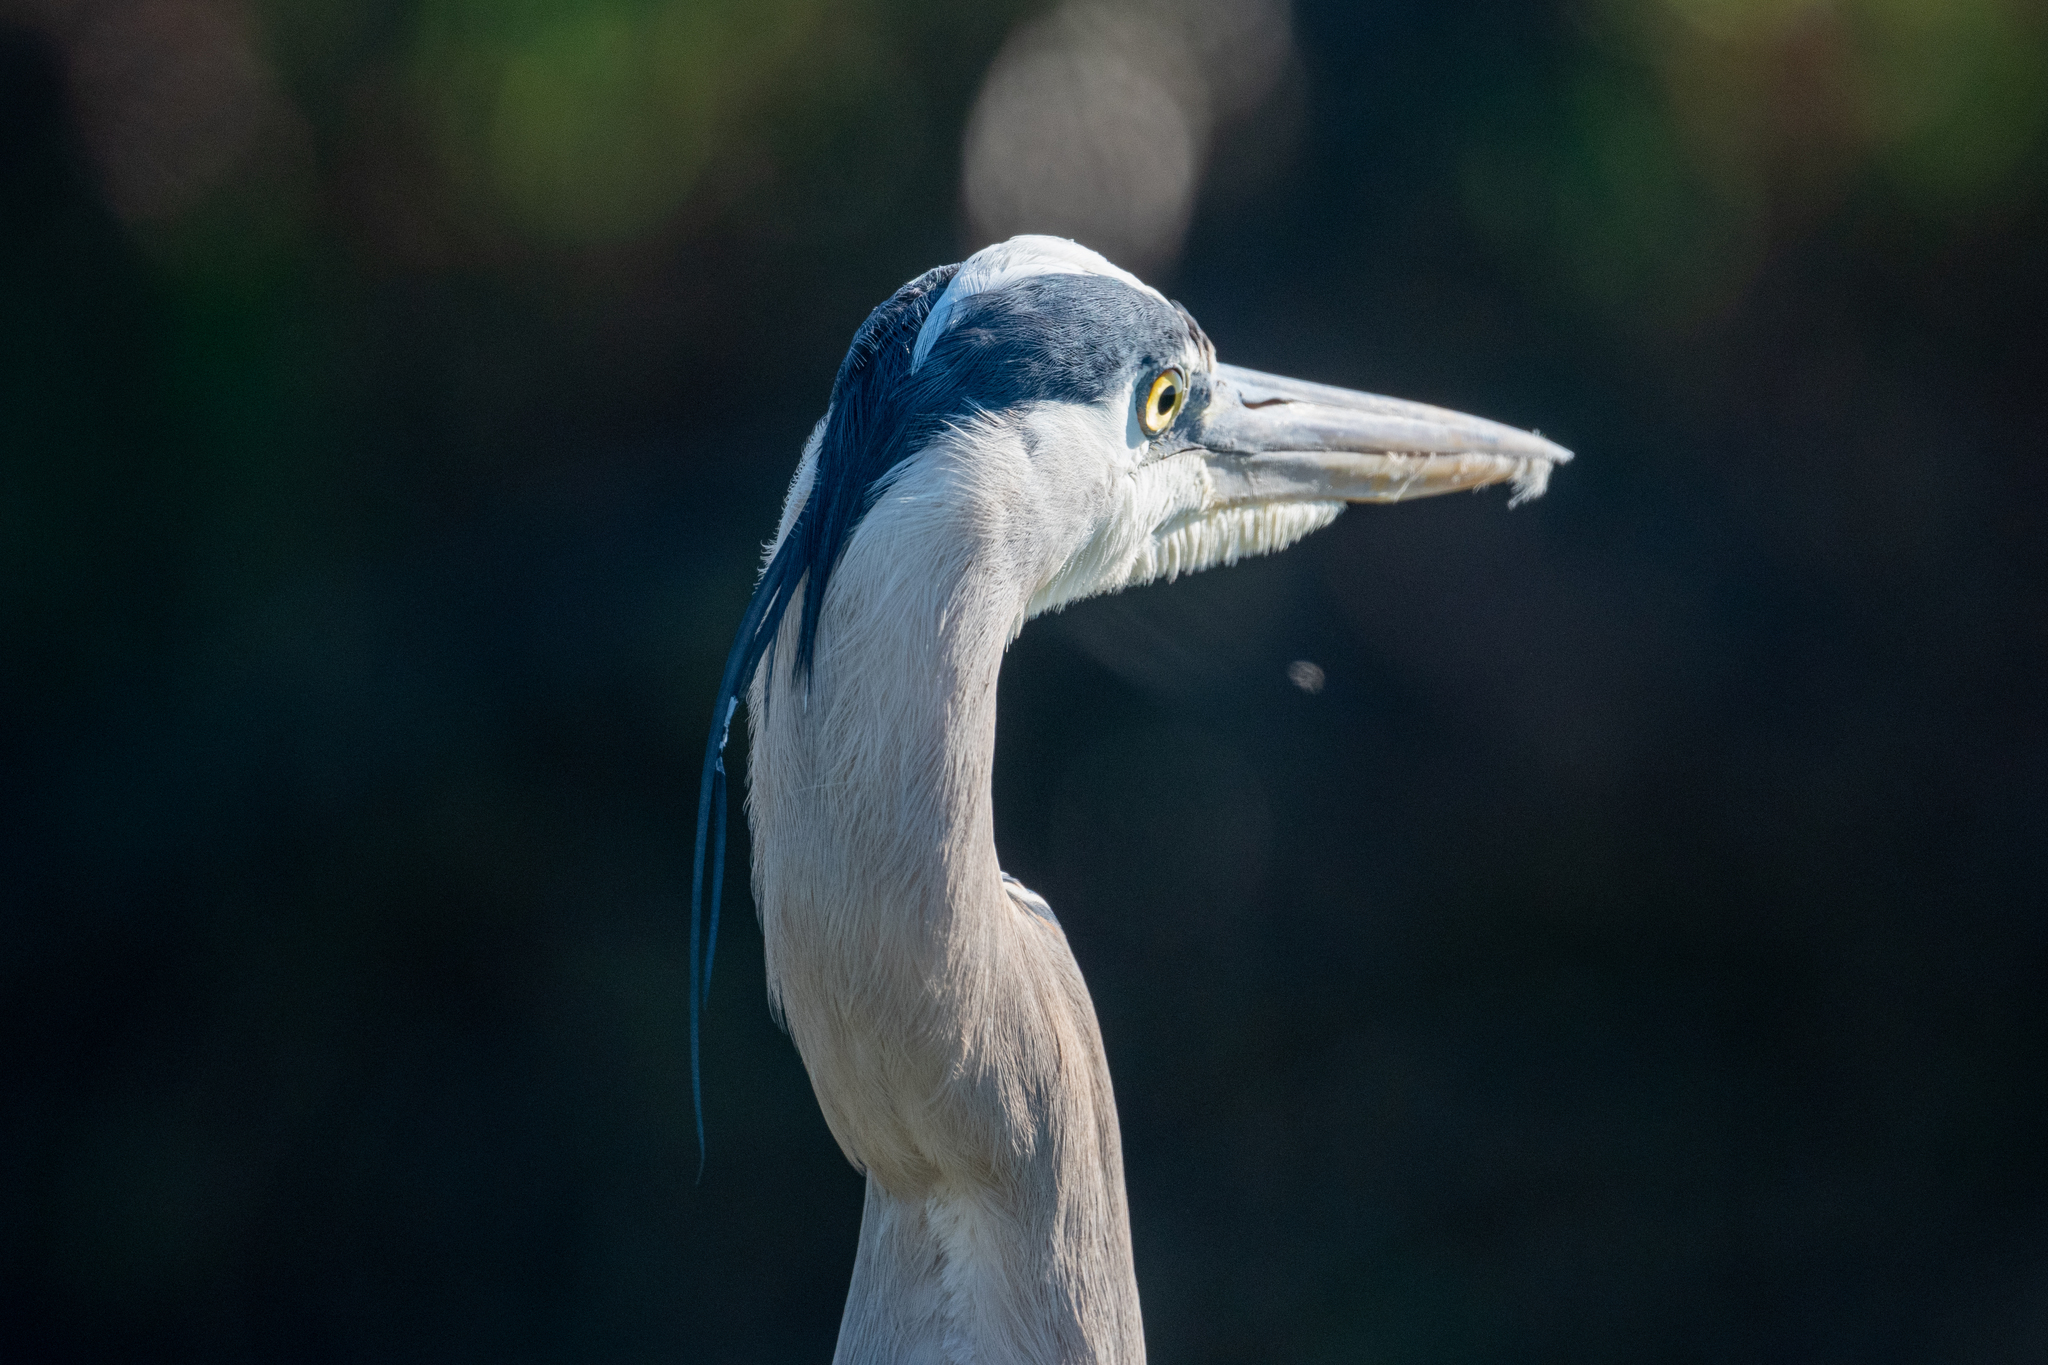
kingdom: Animalia
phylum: Chordata
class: Aves
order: Pelecaniformes
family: Ardeidae
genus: Ardea
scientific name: Ardea herodias
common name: Great blue heron
